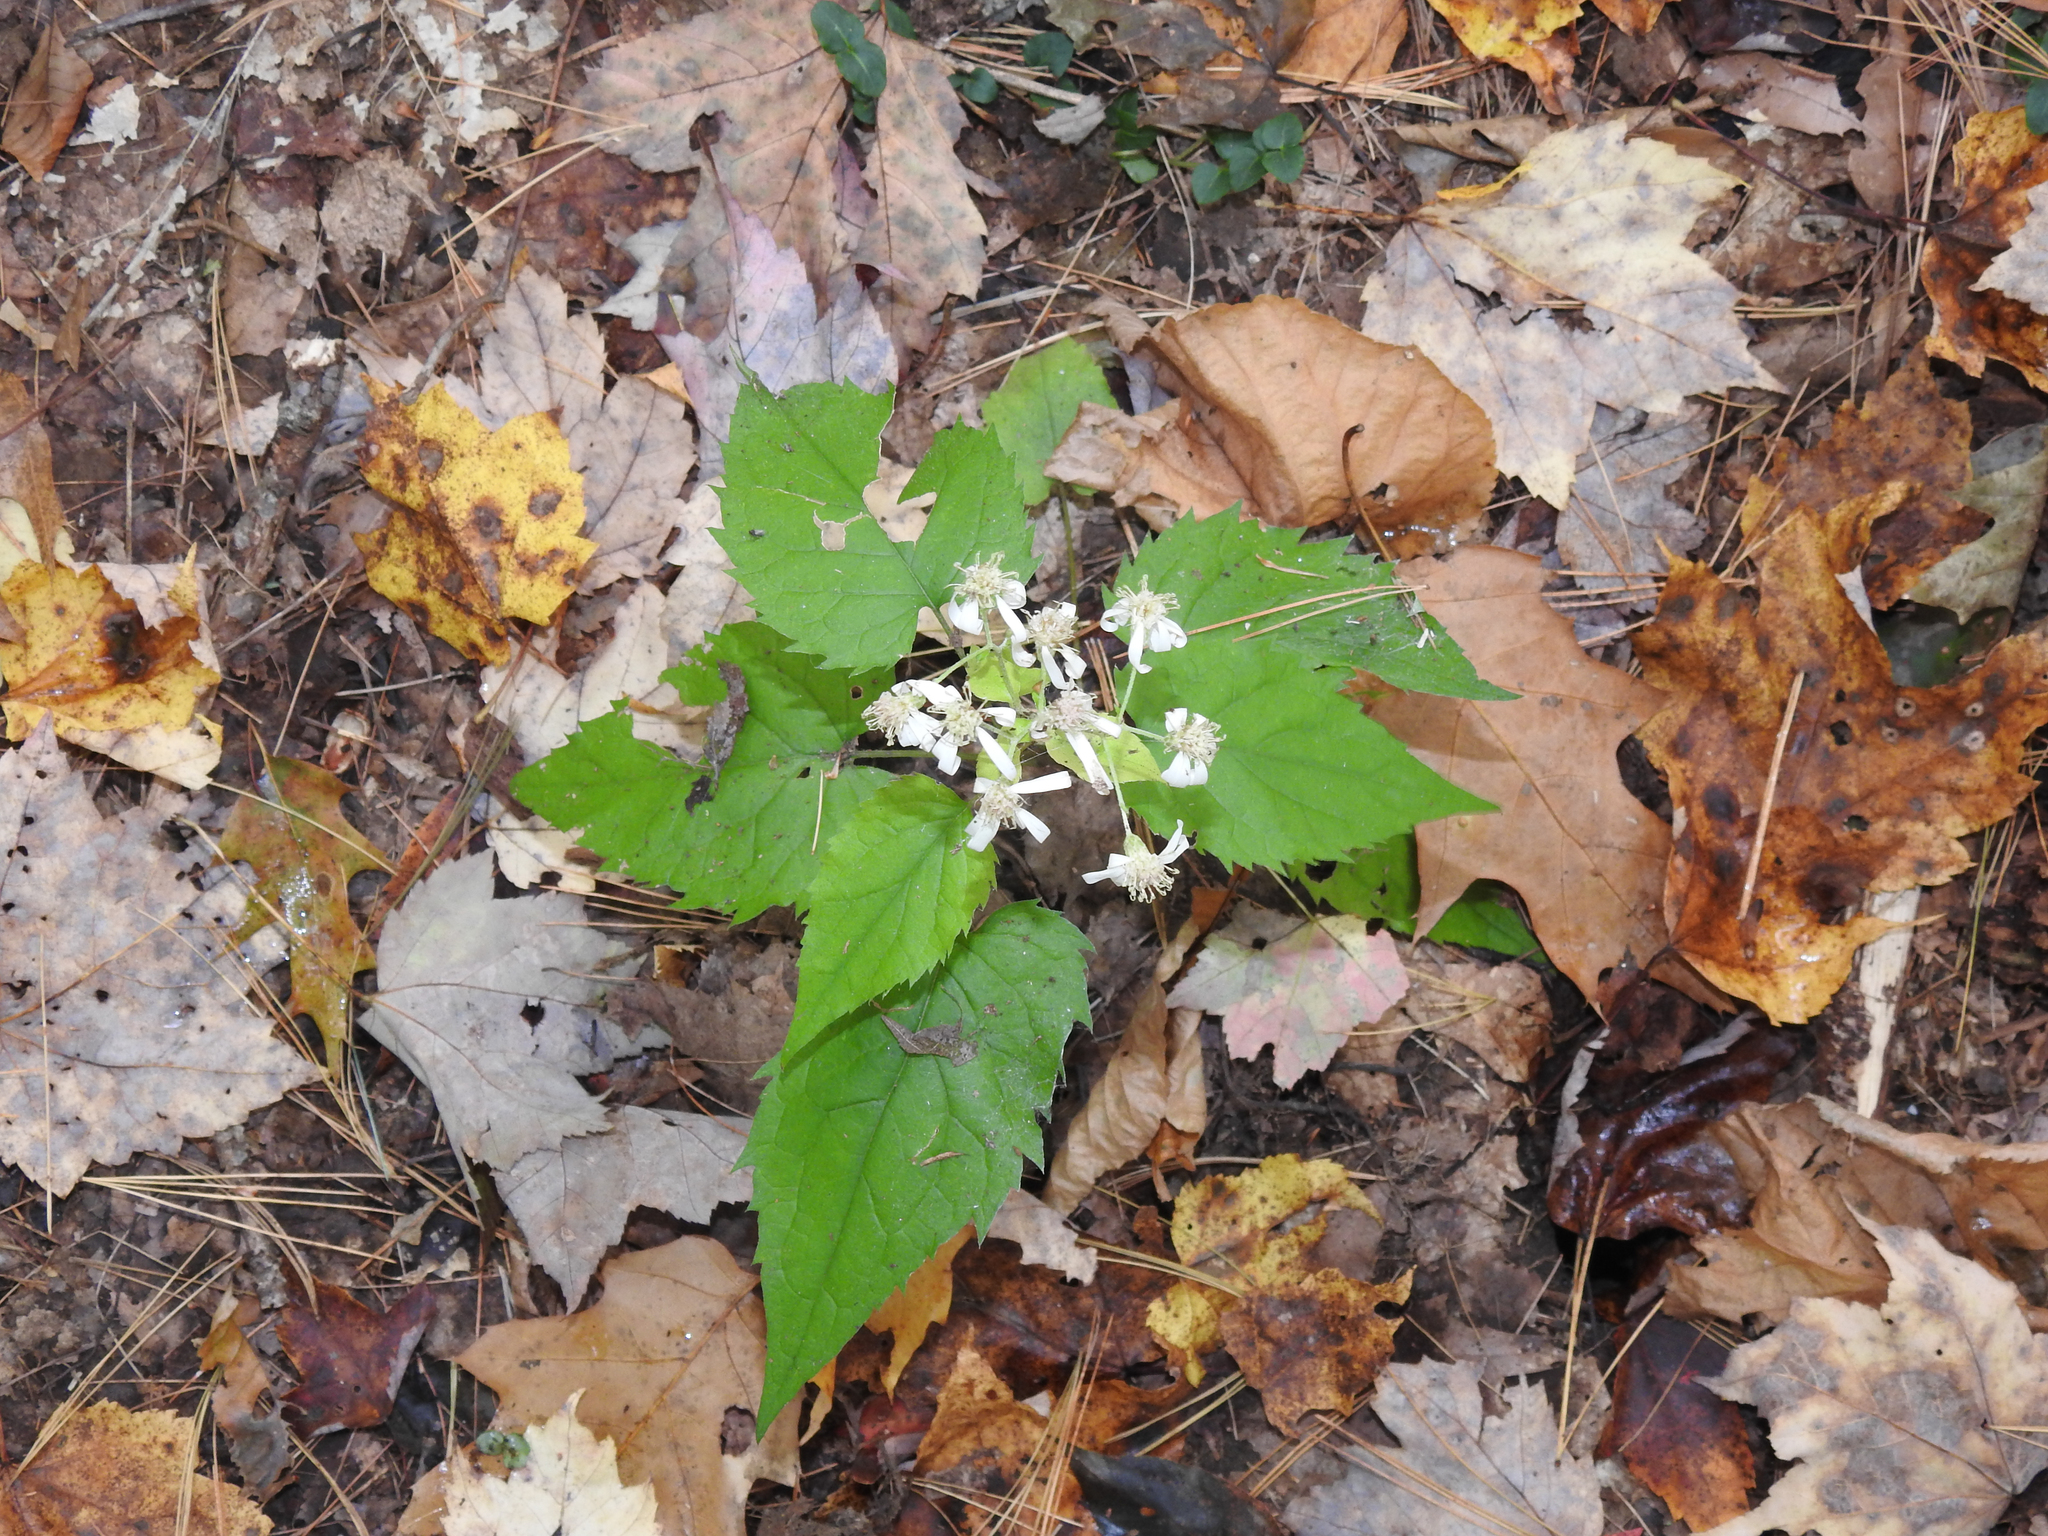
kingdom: Plantae
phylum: Tracheophyta
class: Magnoliopsida
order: Asterales
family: Asteraceae
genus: Eurybia
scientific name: Eurybia divaricata
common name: White wood aster
